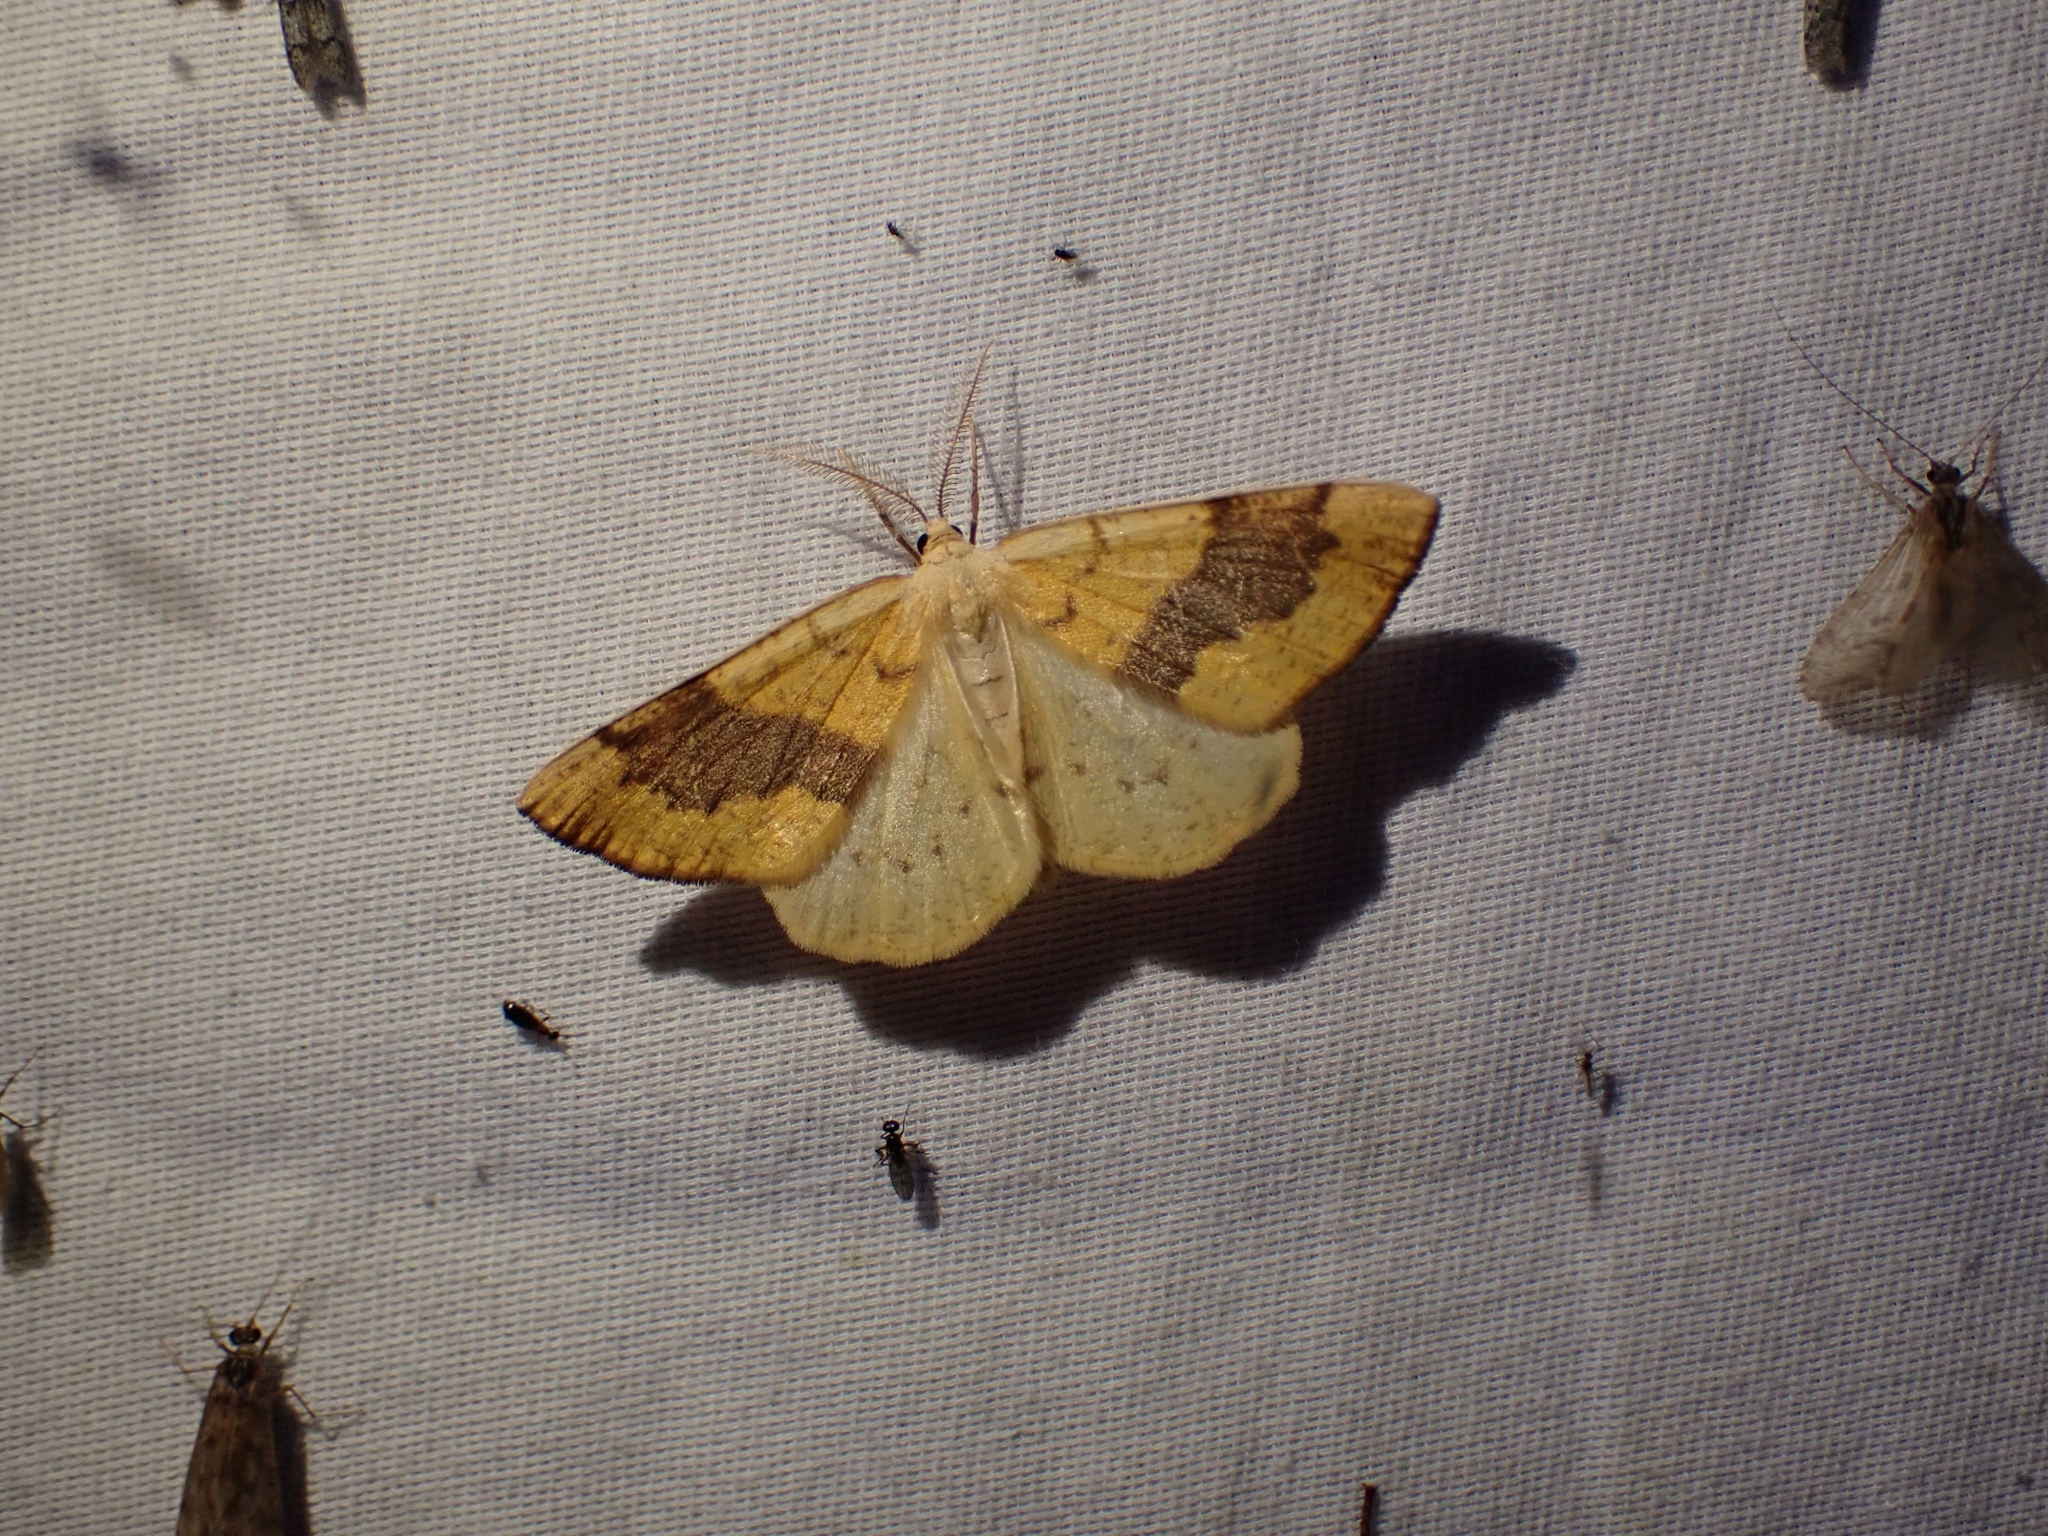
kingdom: Animalia
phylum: Arthropoda
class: Insecta
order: Lepidoptera
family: Geometridae
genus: Hesperumia
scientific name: Hesperumia sulphuraria
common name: Sulphur moth
